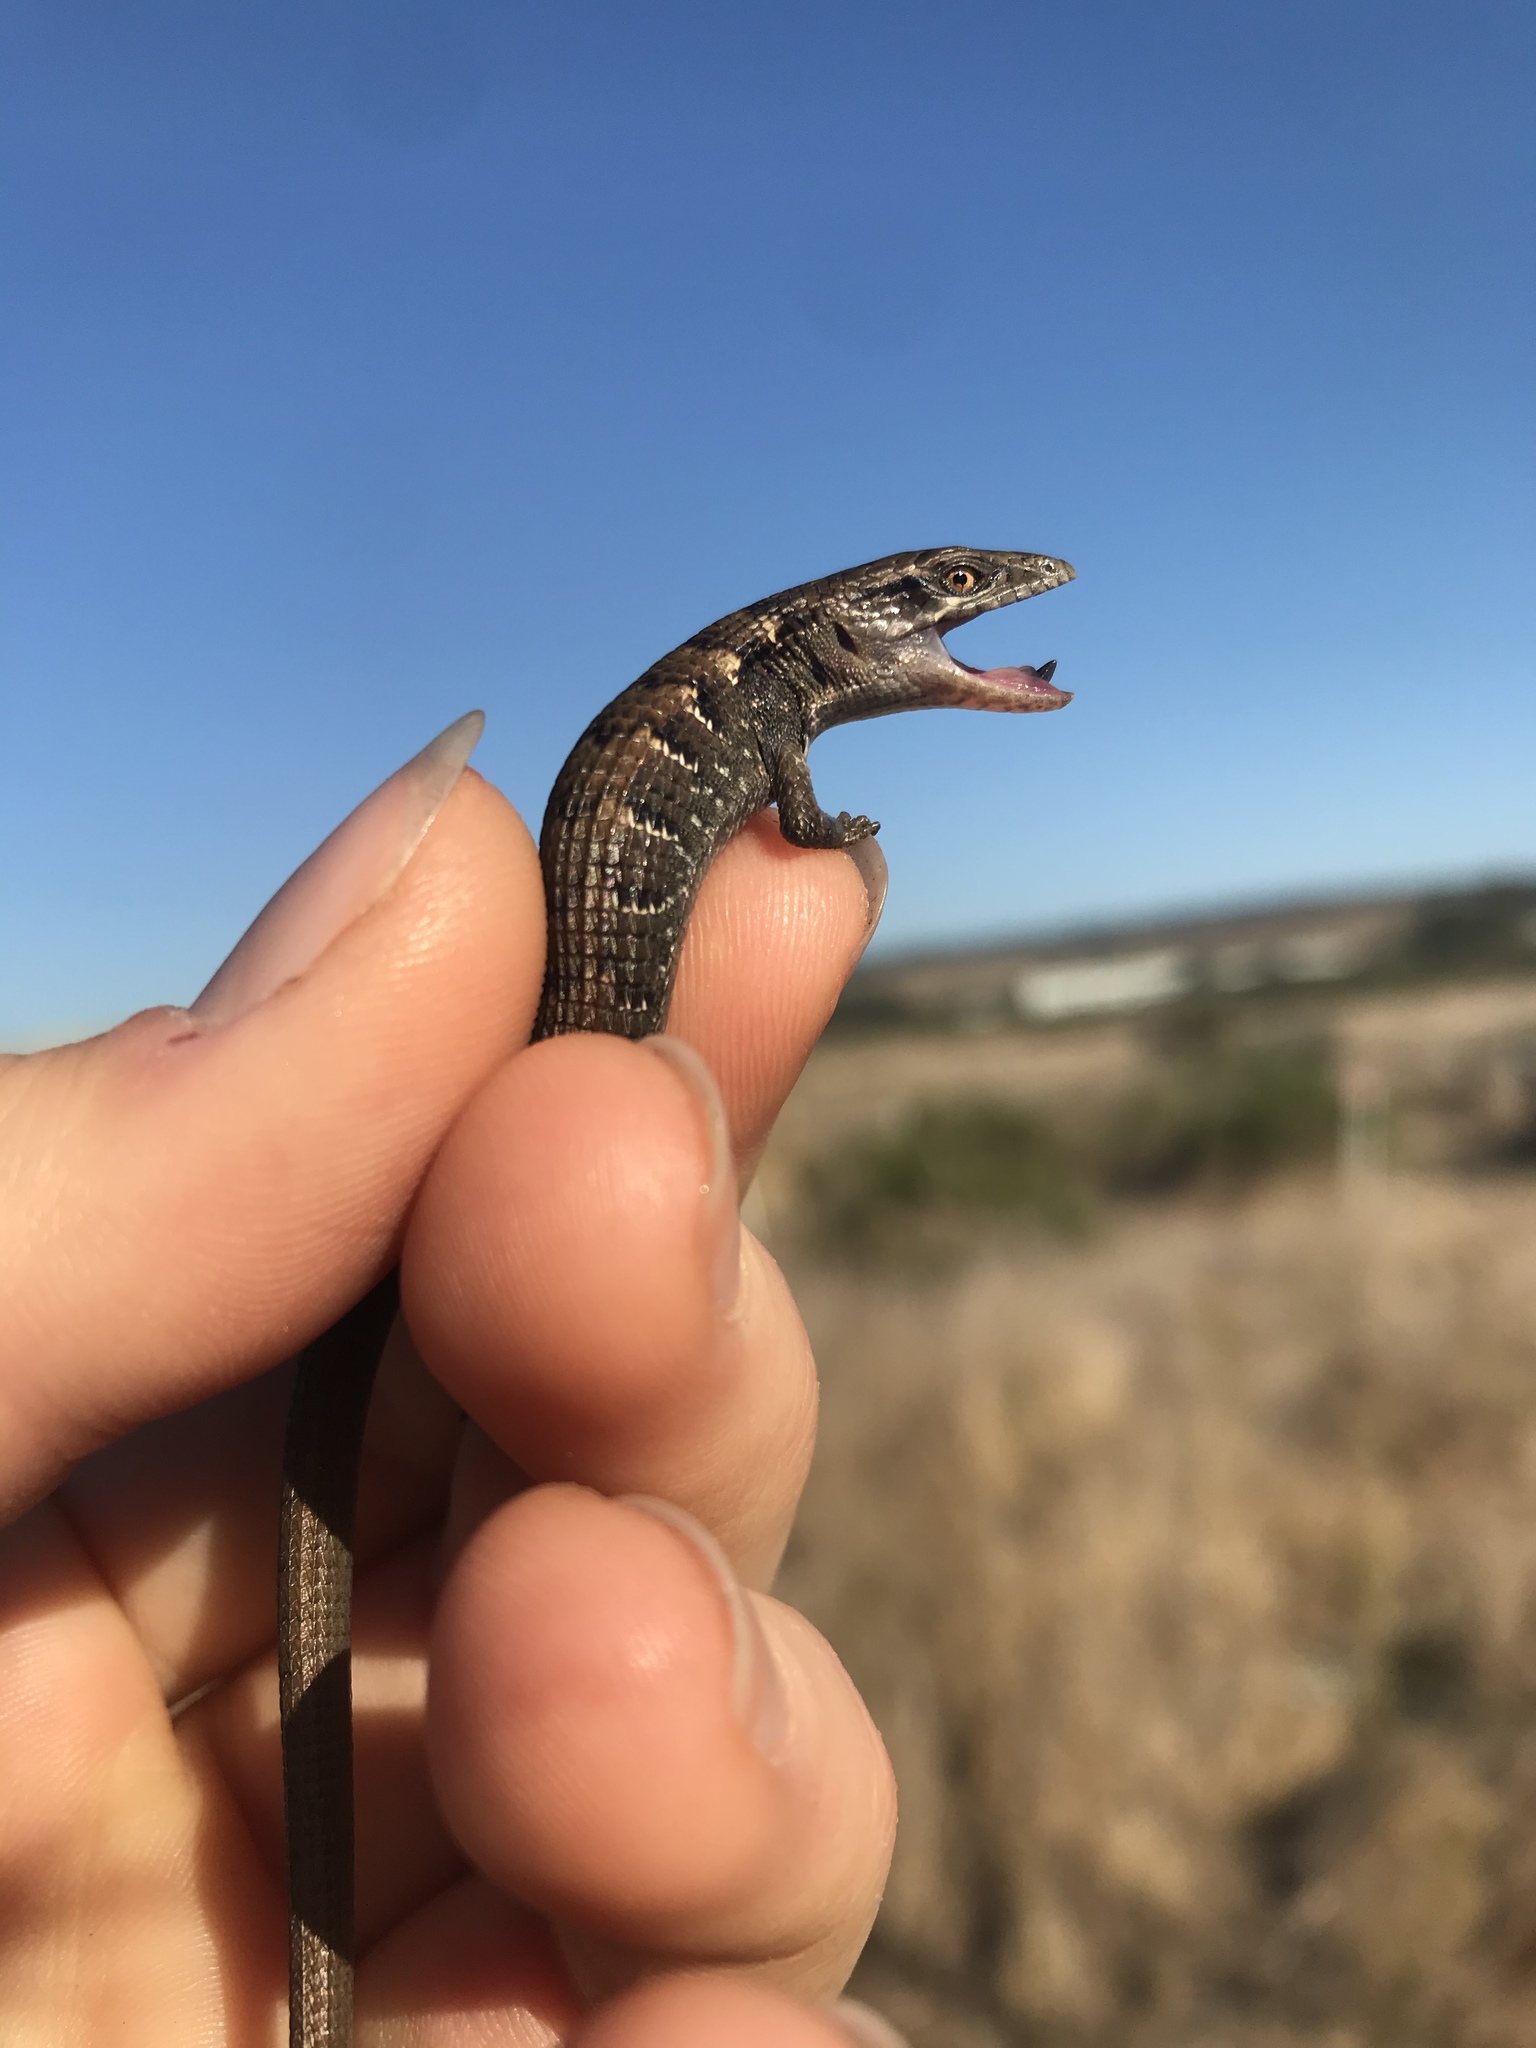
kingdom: Animalia
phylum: Chordata
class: Squamata
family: Anguidae
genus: Elgaria
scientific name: Elgaria multicarinata
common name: Southern alligator lizard
